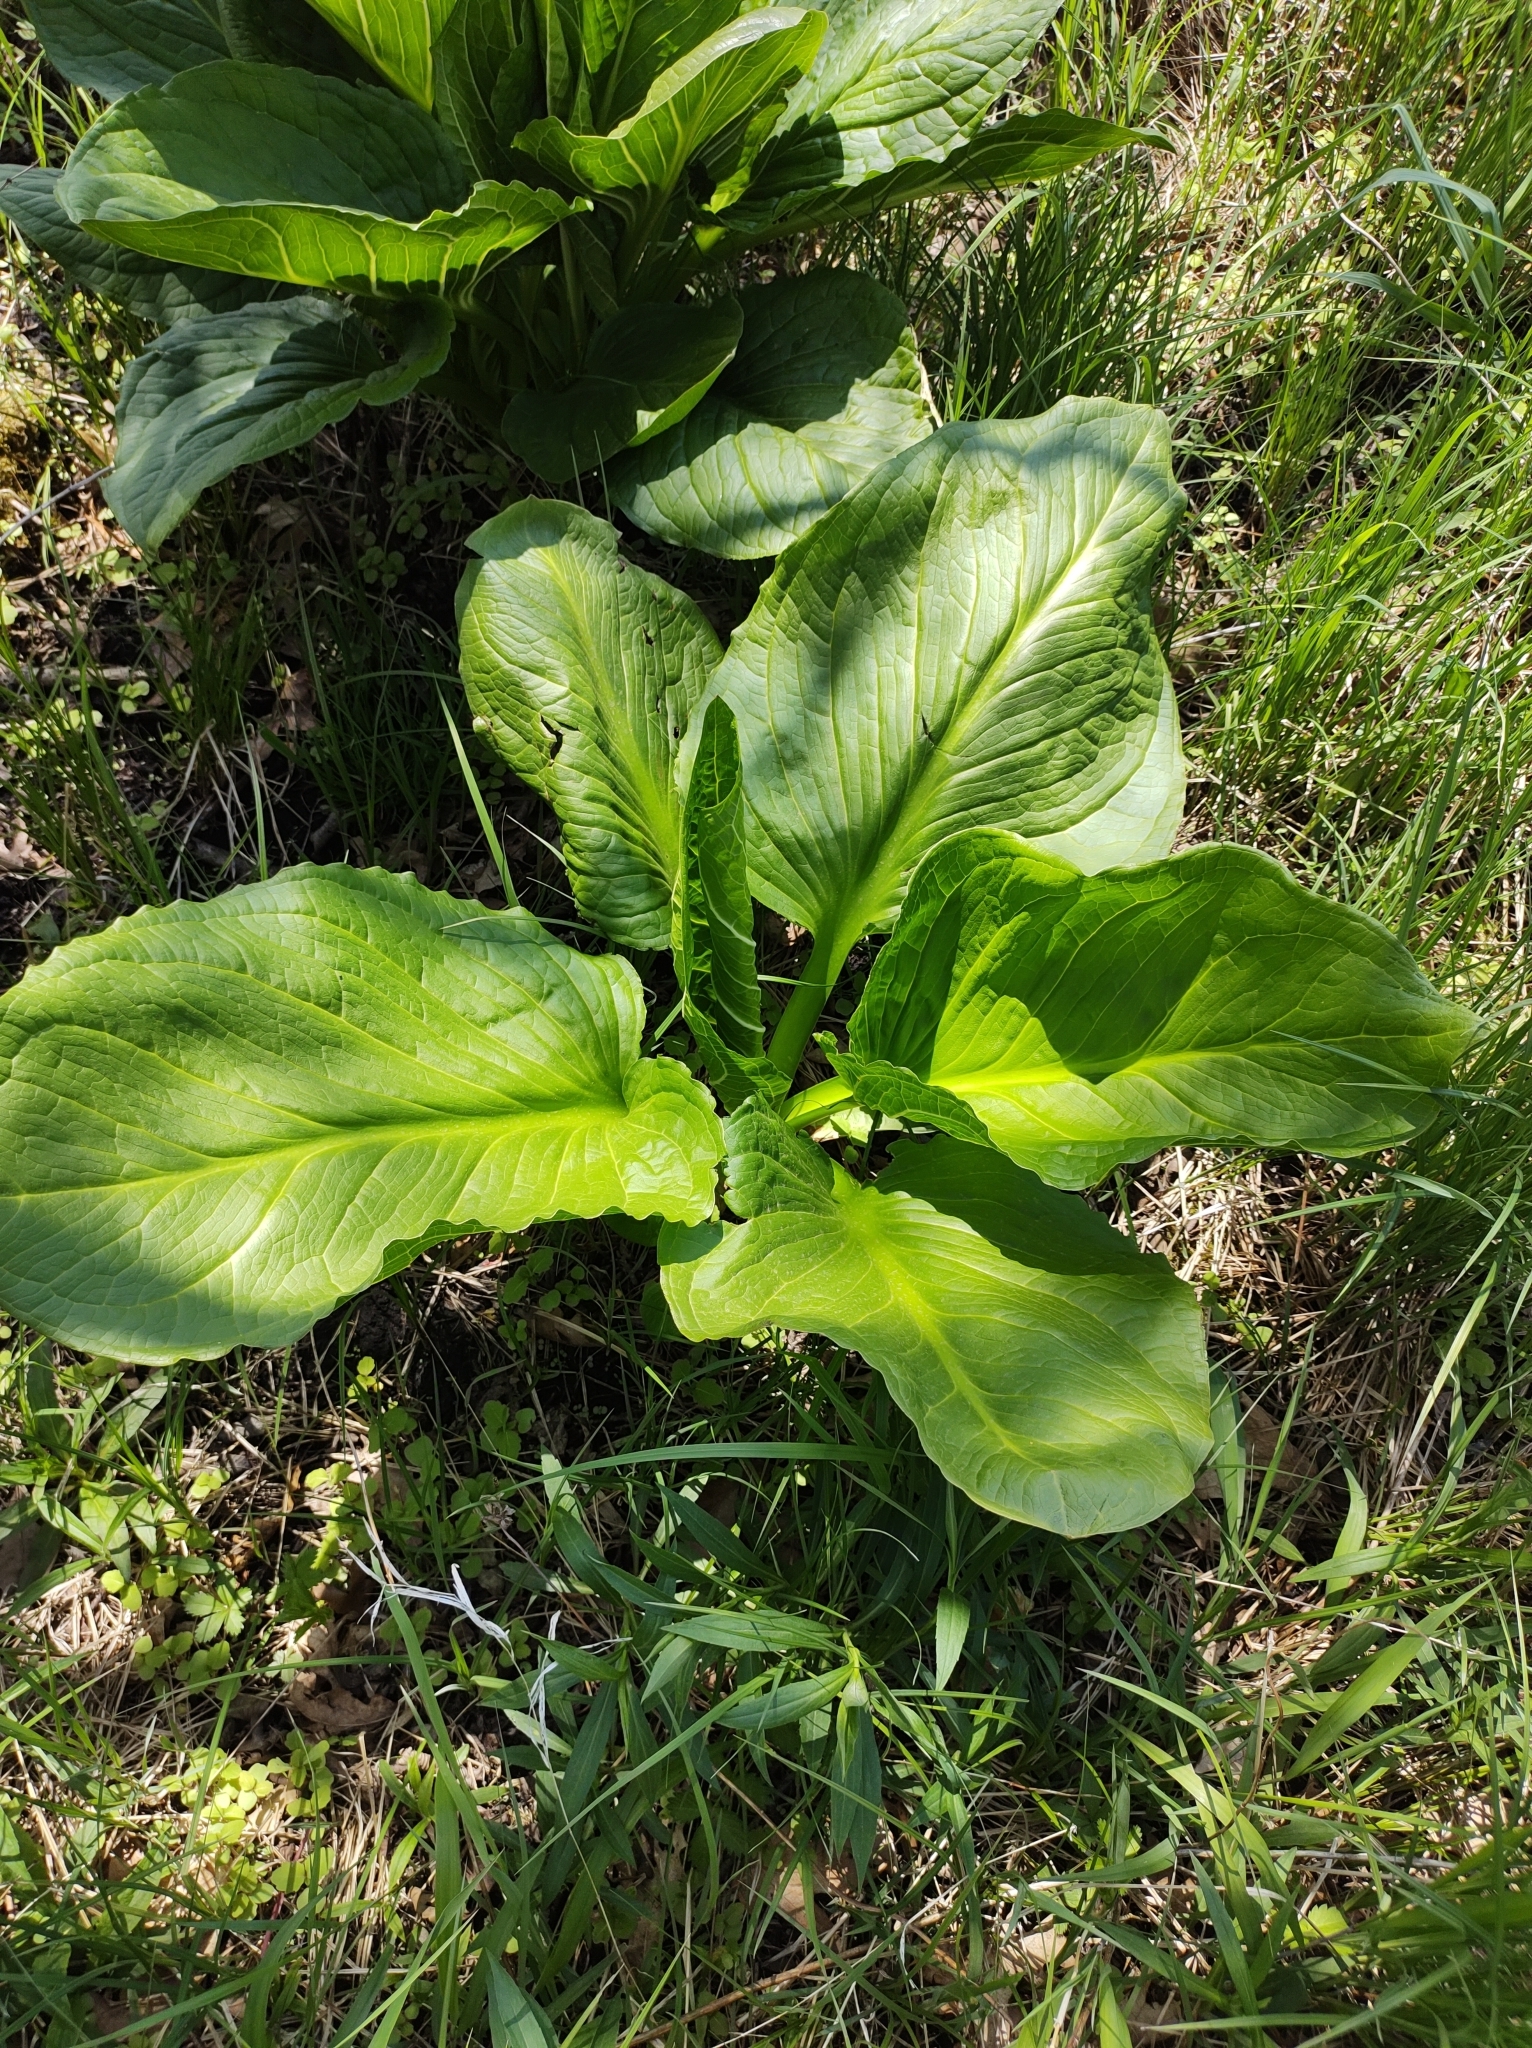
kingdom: Plantae
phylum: Tracheophyta
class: Liliopsida
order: Alismatales
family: Araceae
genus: Symplocarpus
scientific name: Symplocarpus foetidus
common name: Eastern skunk cabbage
